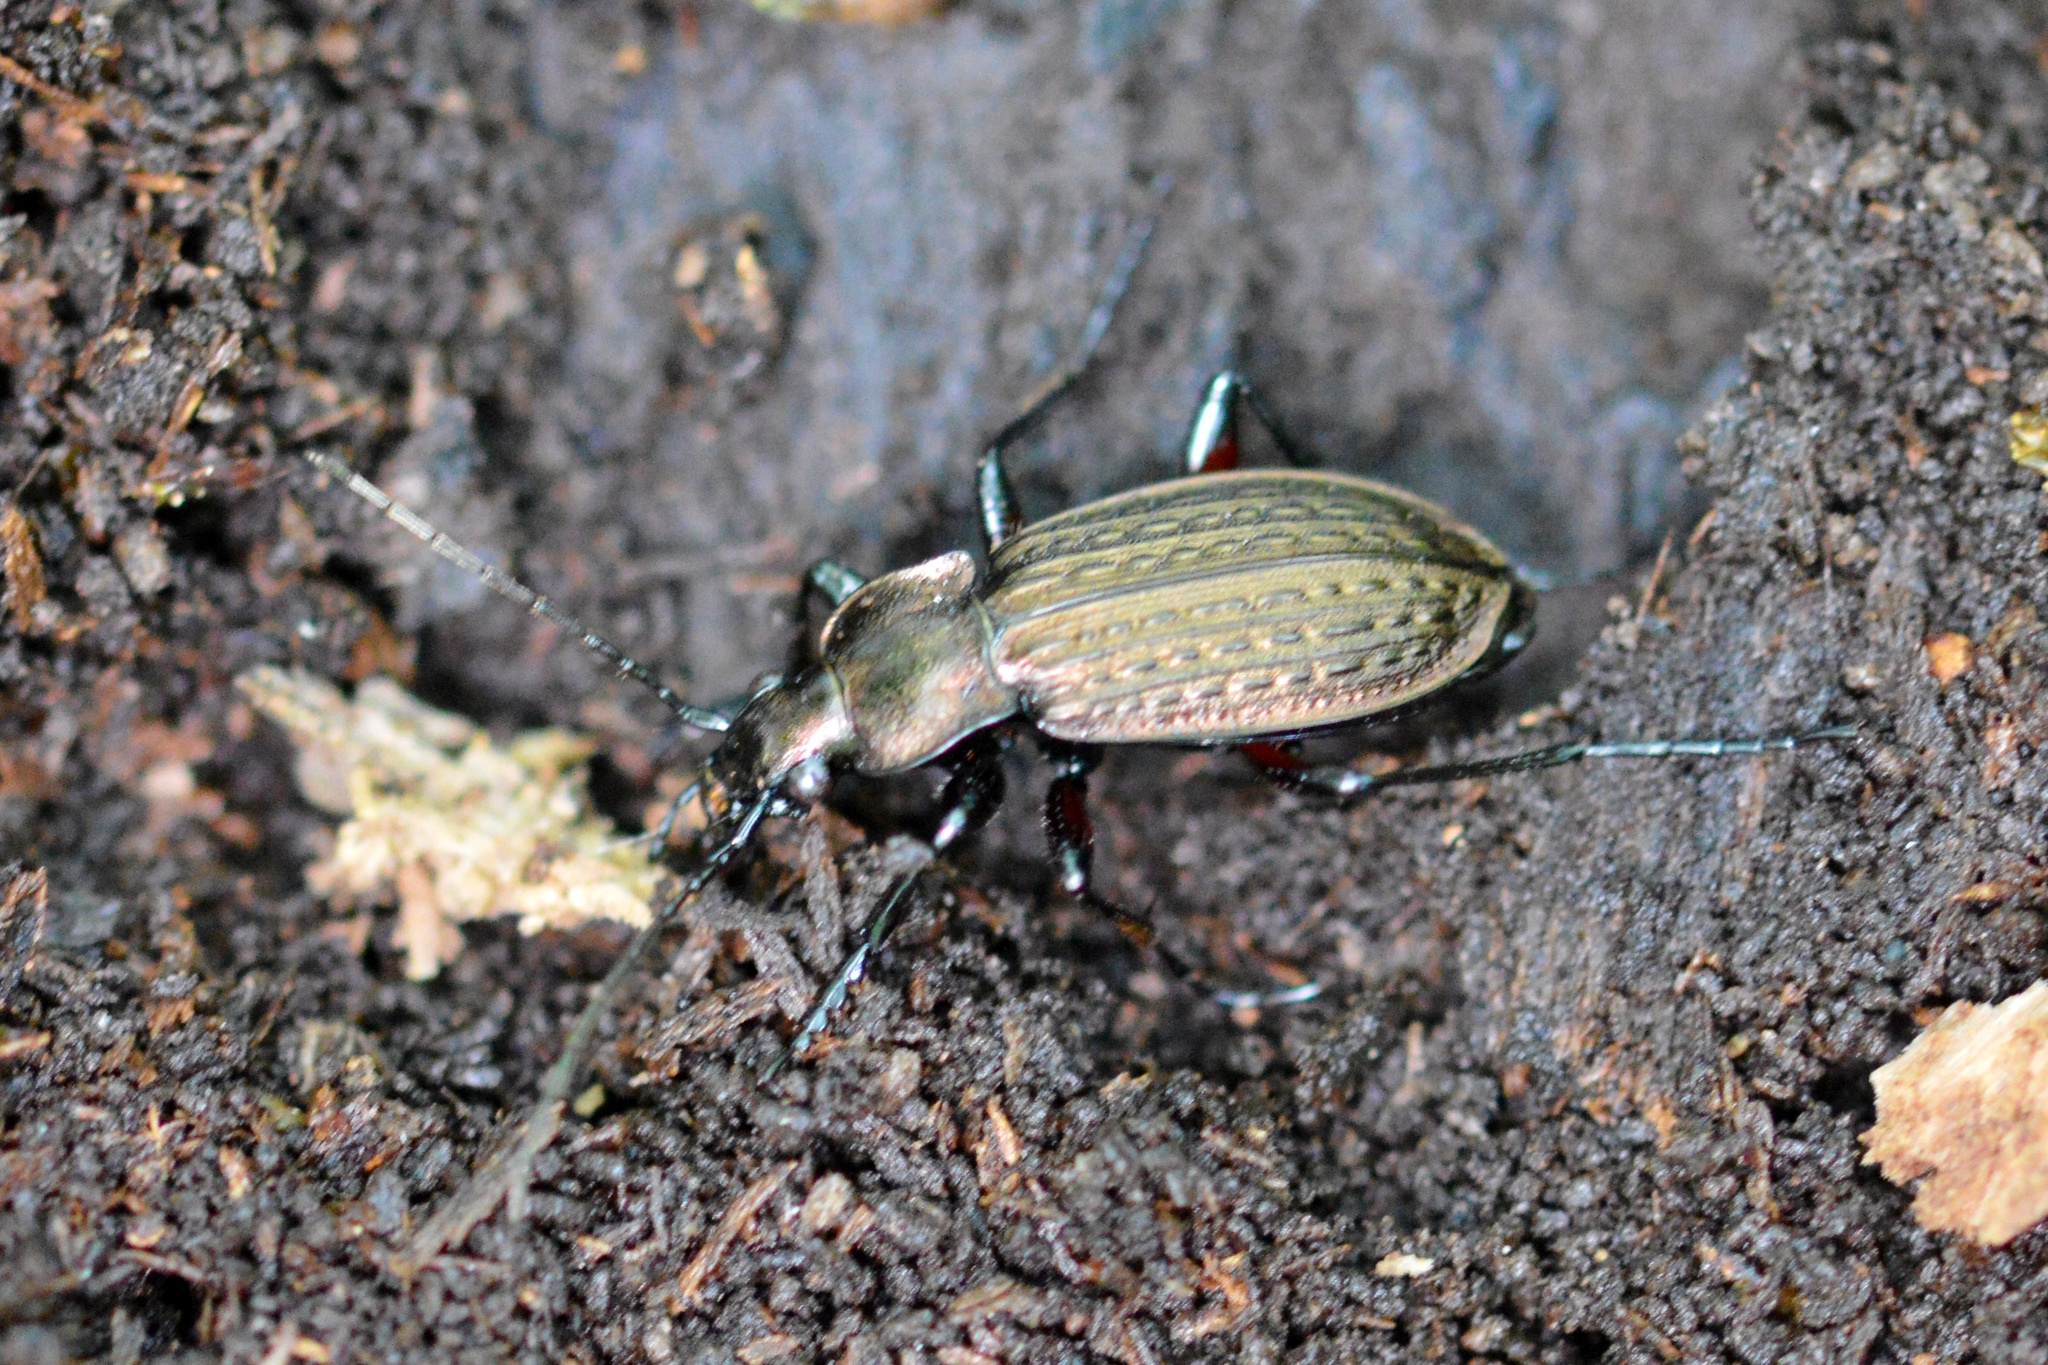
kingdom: Animalia
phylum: Arthropoda
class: Insecta
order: Coleoptera
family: Carabidae
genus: Carabus
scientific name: Carabus granulatus
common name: Granulate ground beetle
